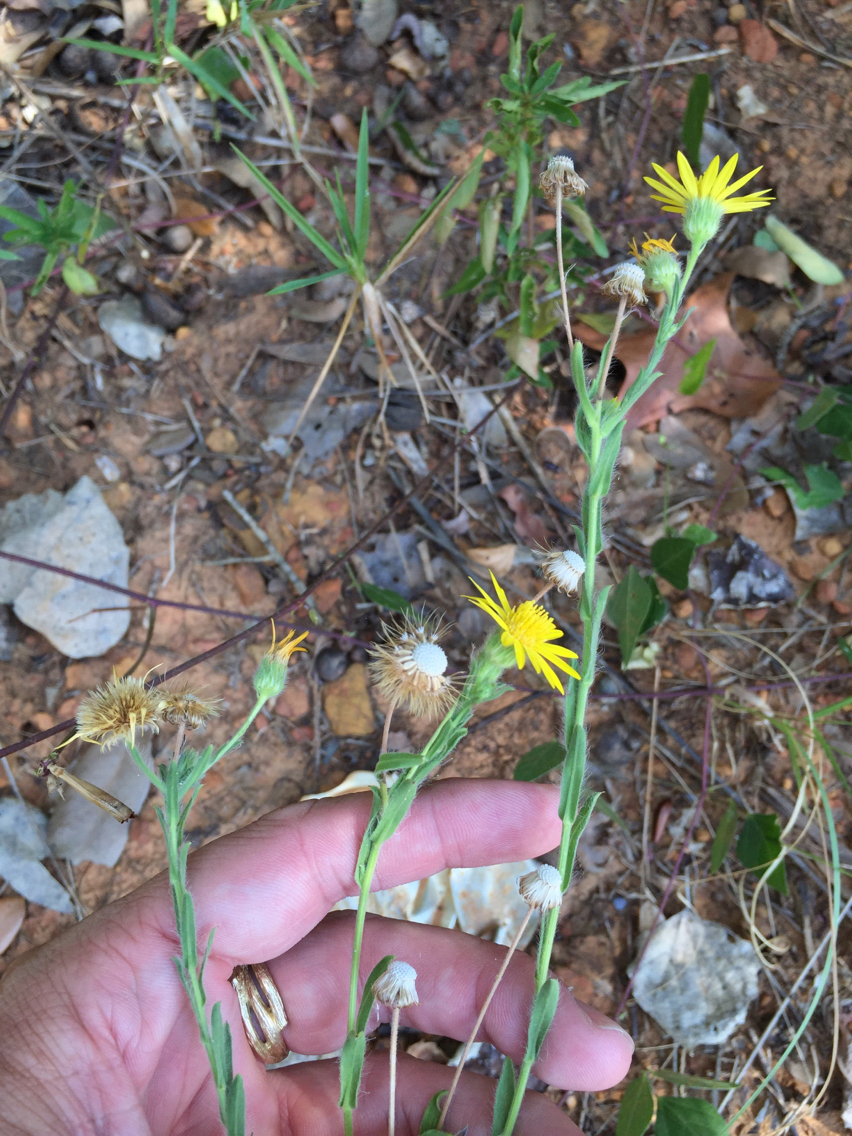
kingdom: Plantae
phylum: Tracheophyta
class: Magnoliopsida
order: Asterales
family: Asteraceae
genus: Bradburia
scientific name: Bradburia pilosa
